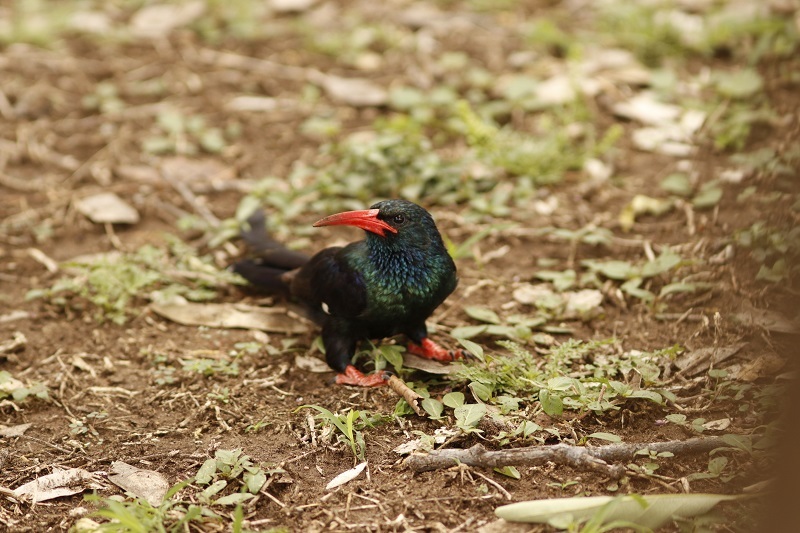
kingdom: Animalia
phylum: Chordata
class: Aves
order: Bucerotiformes
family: Phoeniculidae
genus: Phoeniculus
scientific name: Phoeniculus purpureus
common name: Green woodhoopoe
